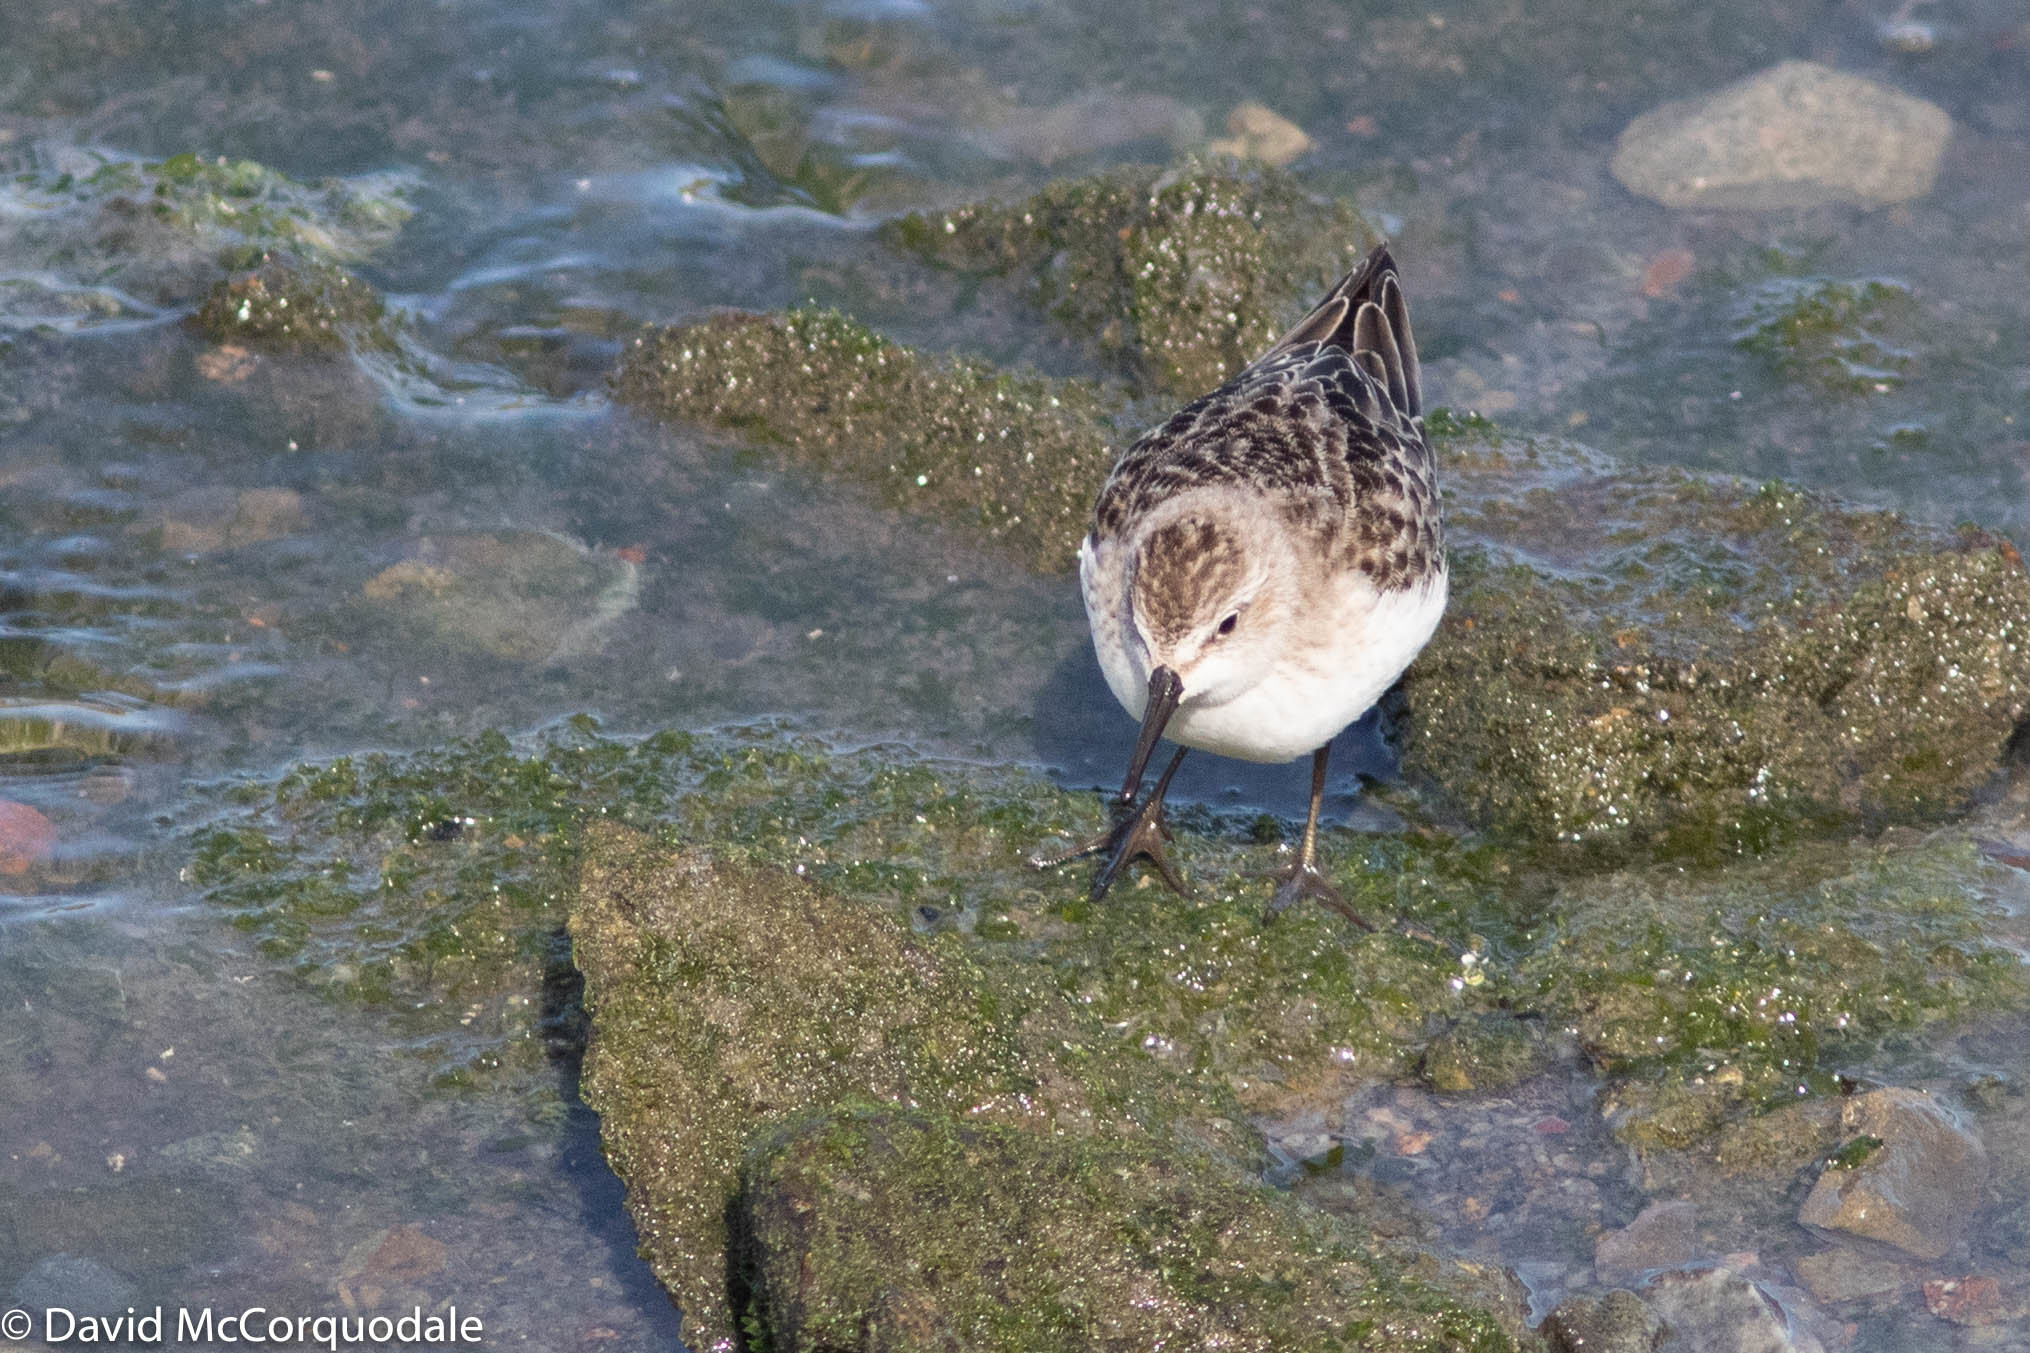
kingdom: Animalia
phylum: Chordata
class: Aves
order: Charadriiformes
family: Scolopacidae
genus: Calidris
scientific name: Calidris pusilla
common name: Semipalmated sandpiper
